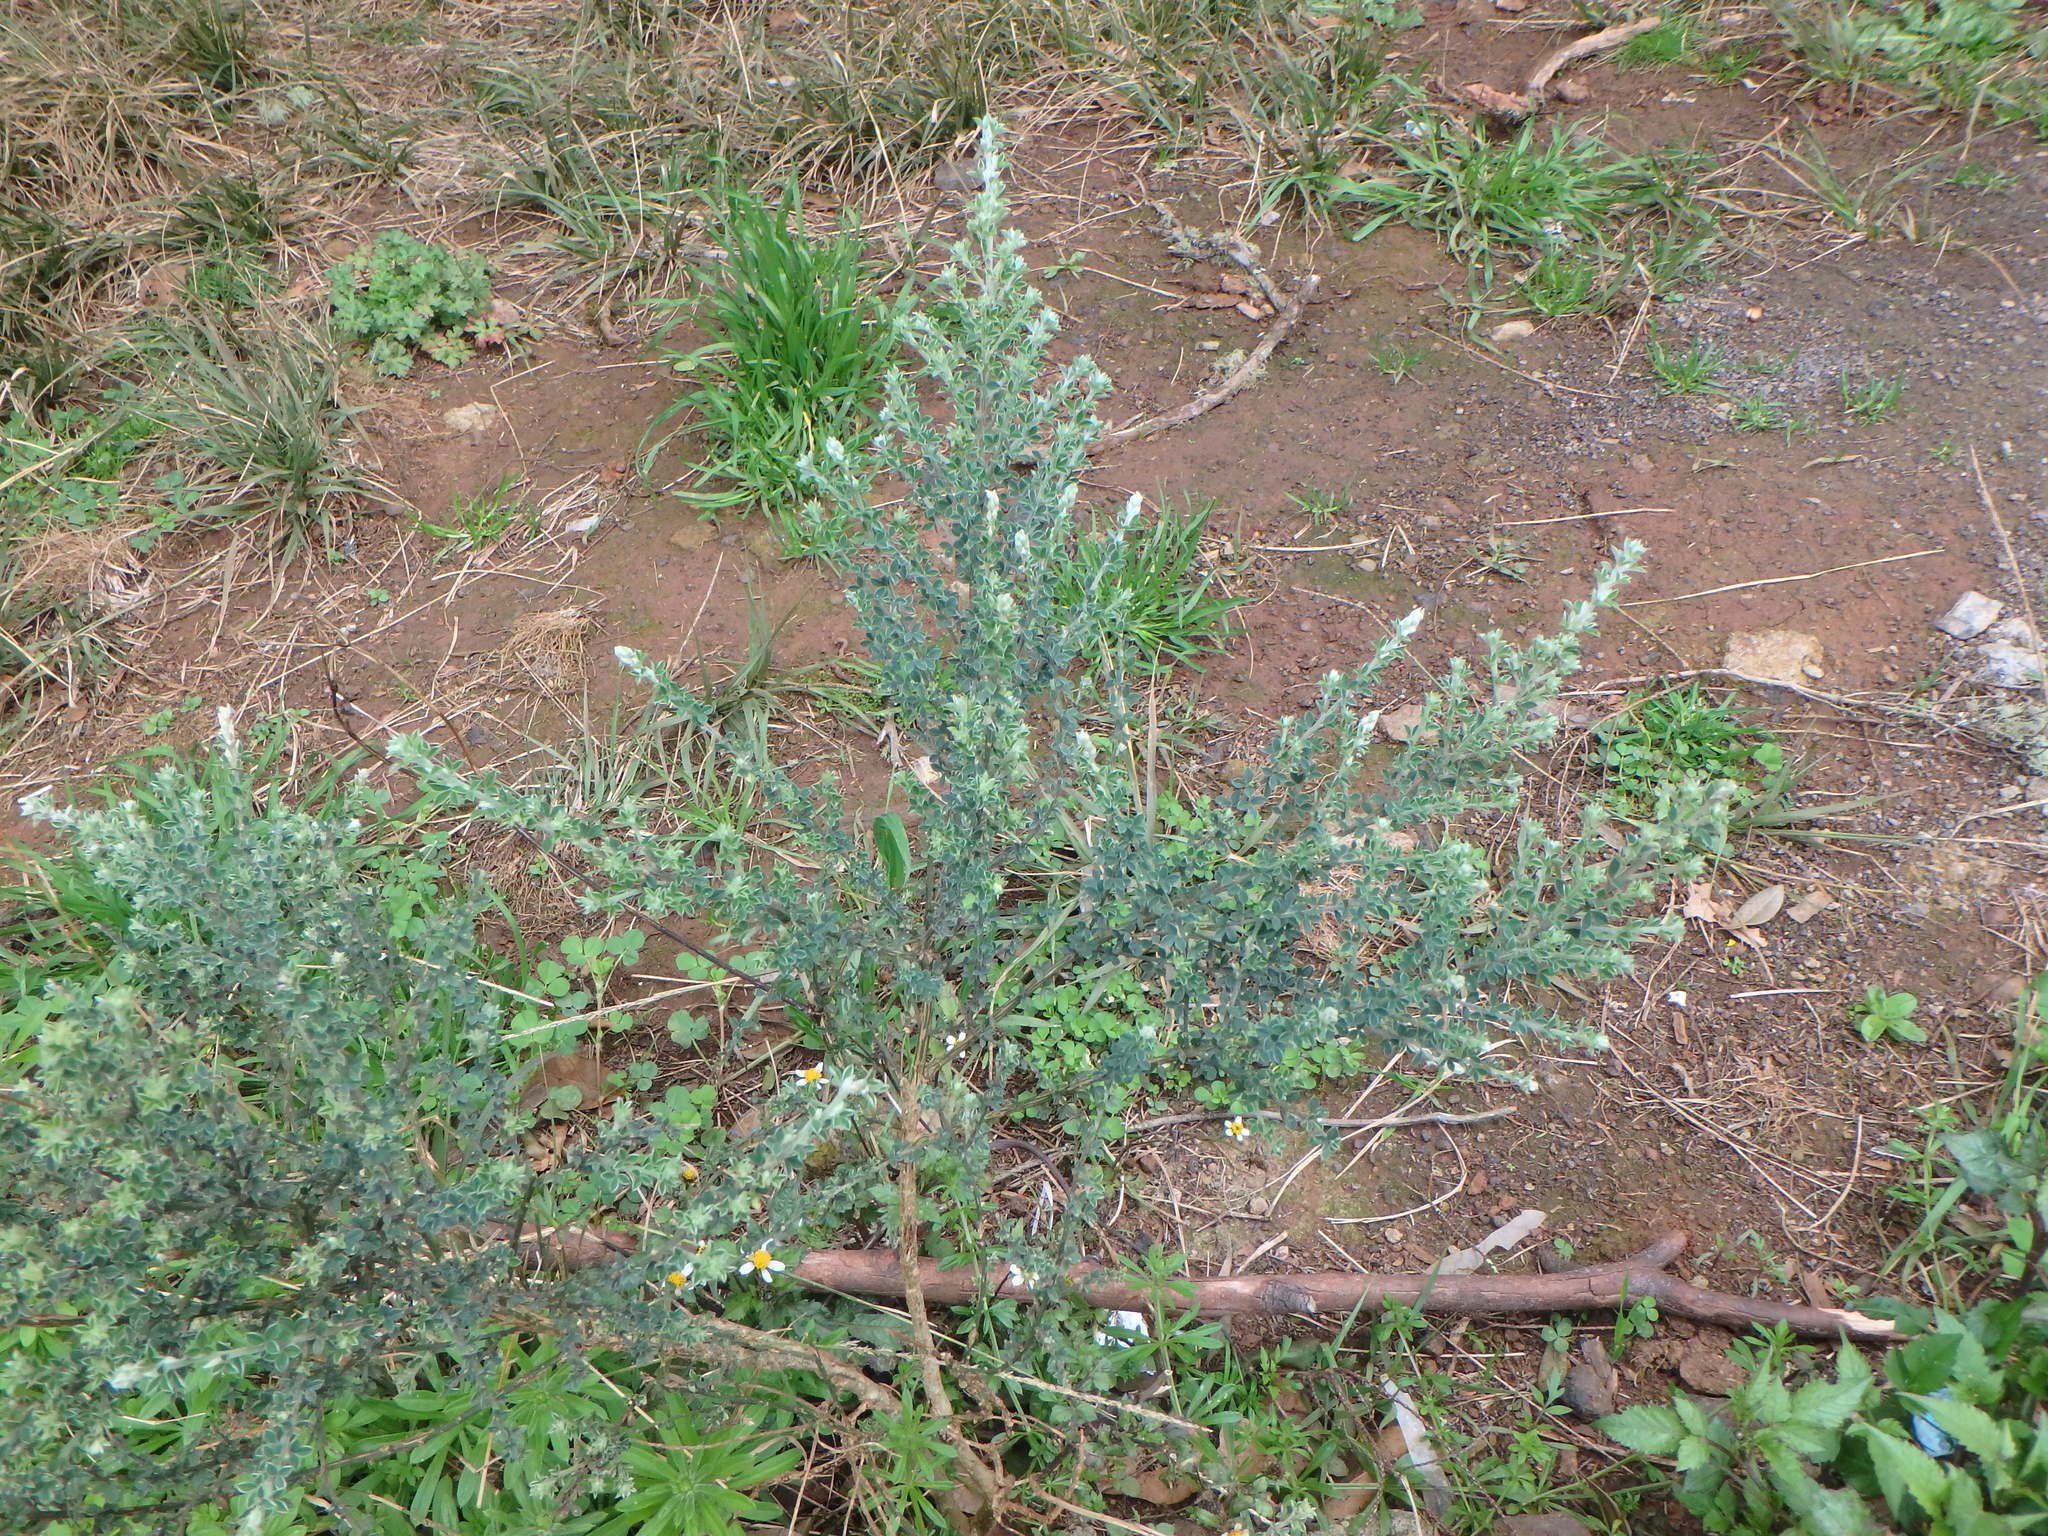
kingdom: Plantae
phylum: Tracheophyta
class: Magnoliopsida
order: Fabales
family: Fabaceae
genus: Genista
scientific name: Genista canariensis
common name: Canary broom
